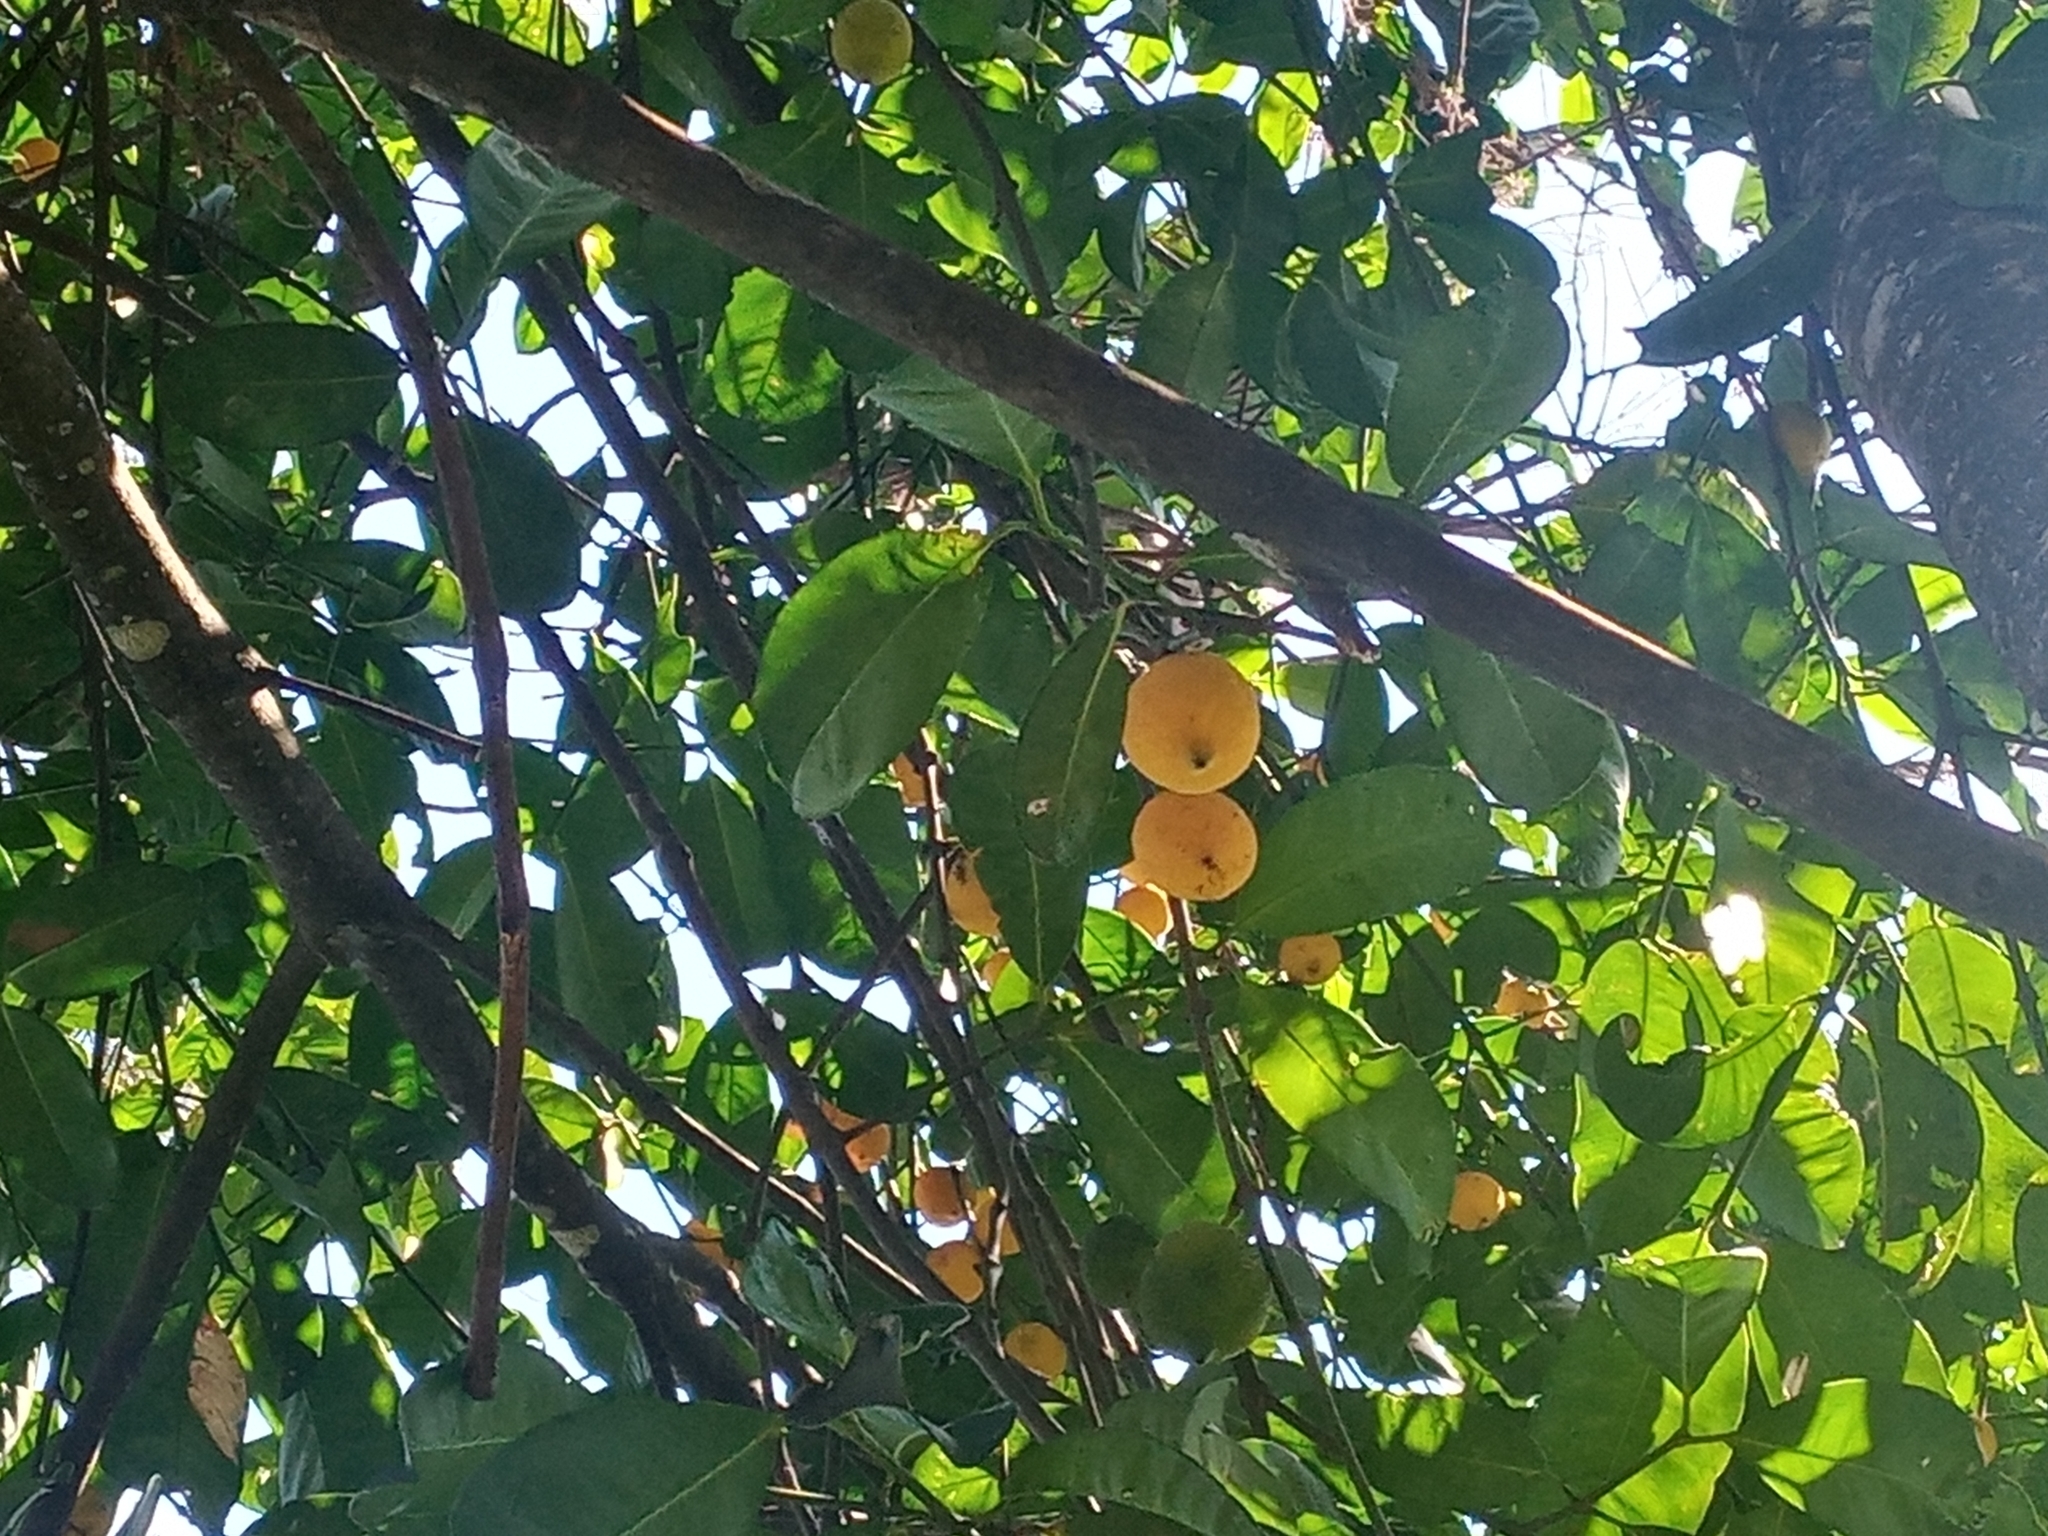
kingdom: Plantae
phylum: Tracheophyta
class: Magnoliopsida
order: Malpighiales
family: Clusiaceae
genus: Garcinia
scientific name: Garcinia madruno
